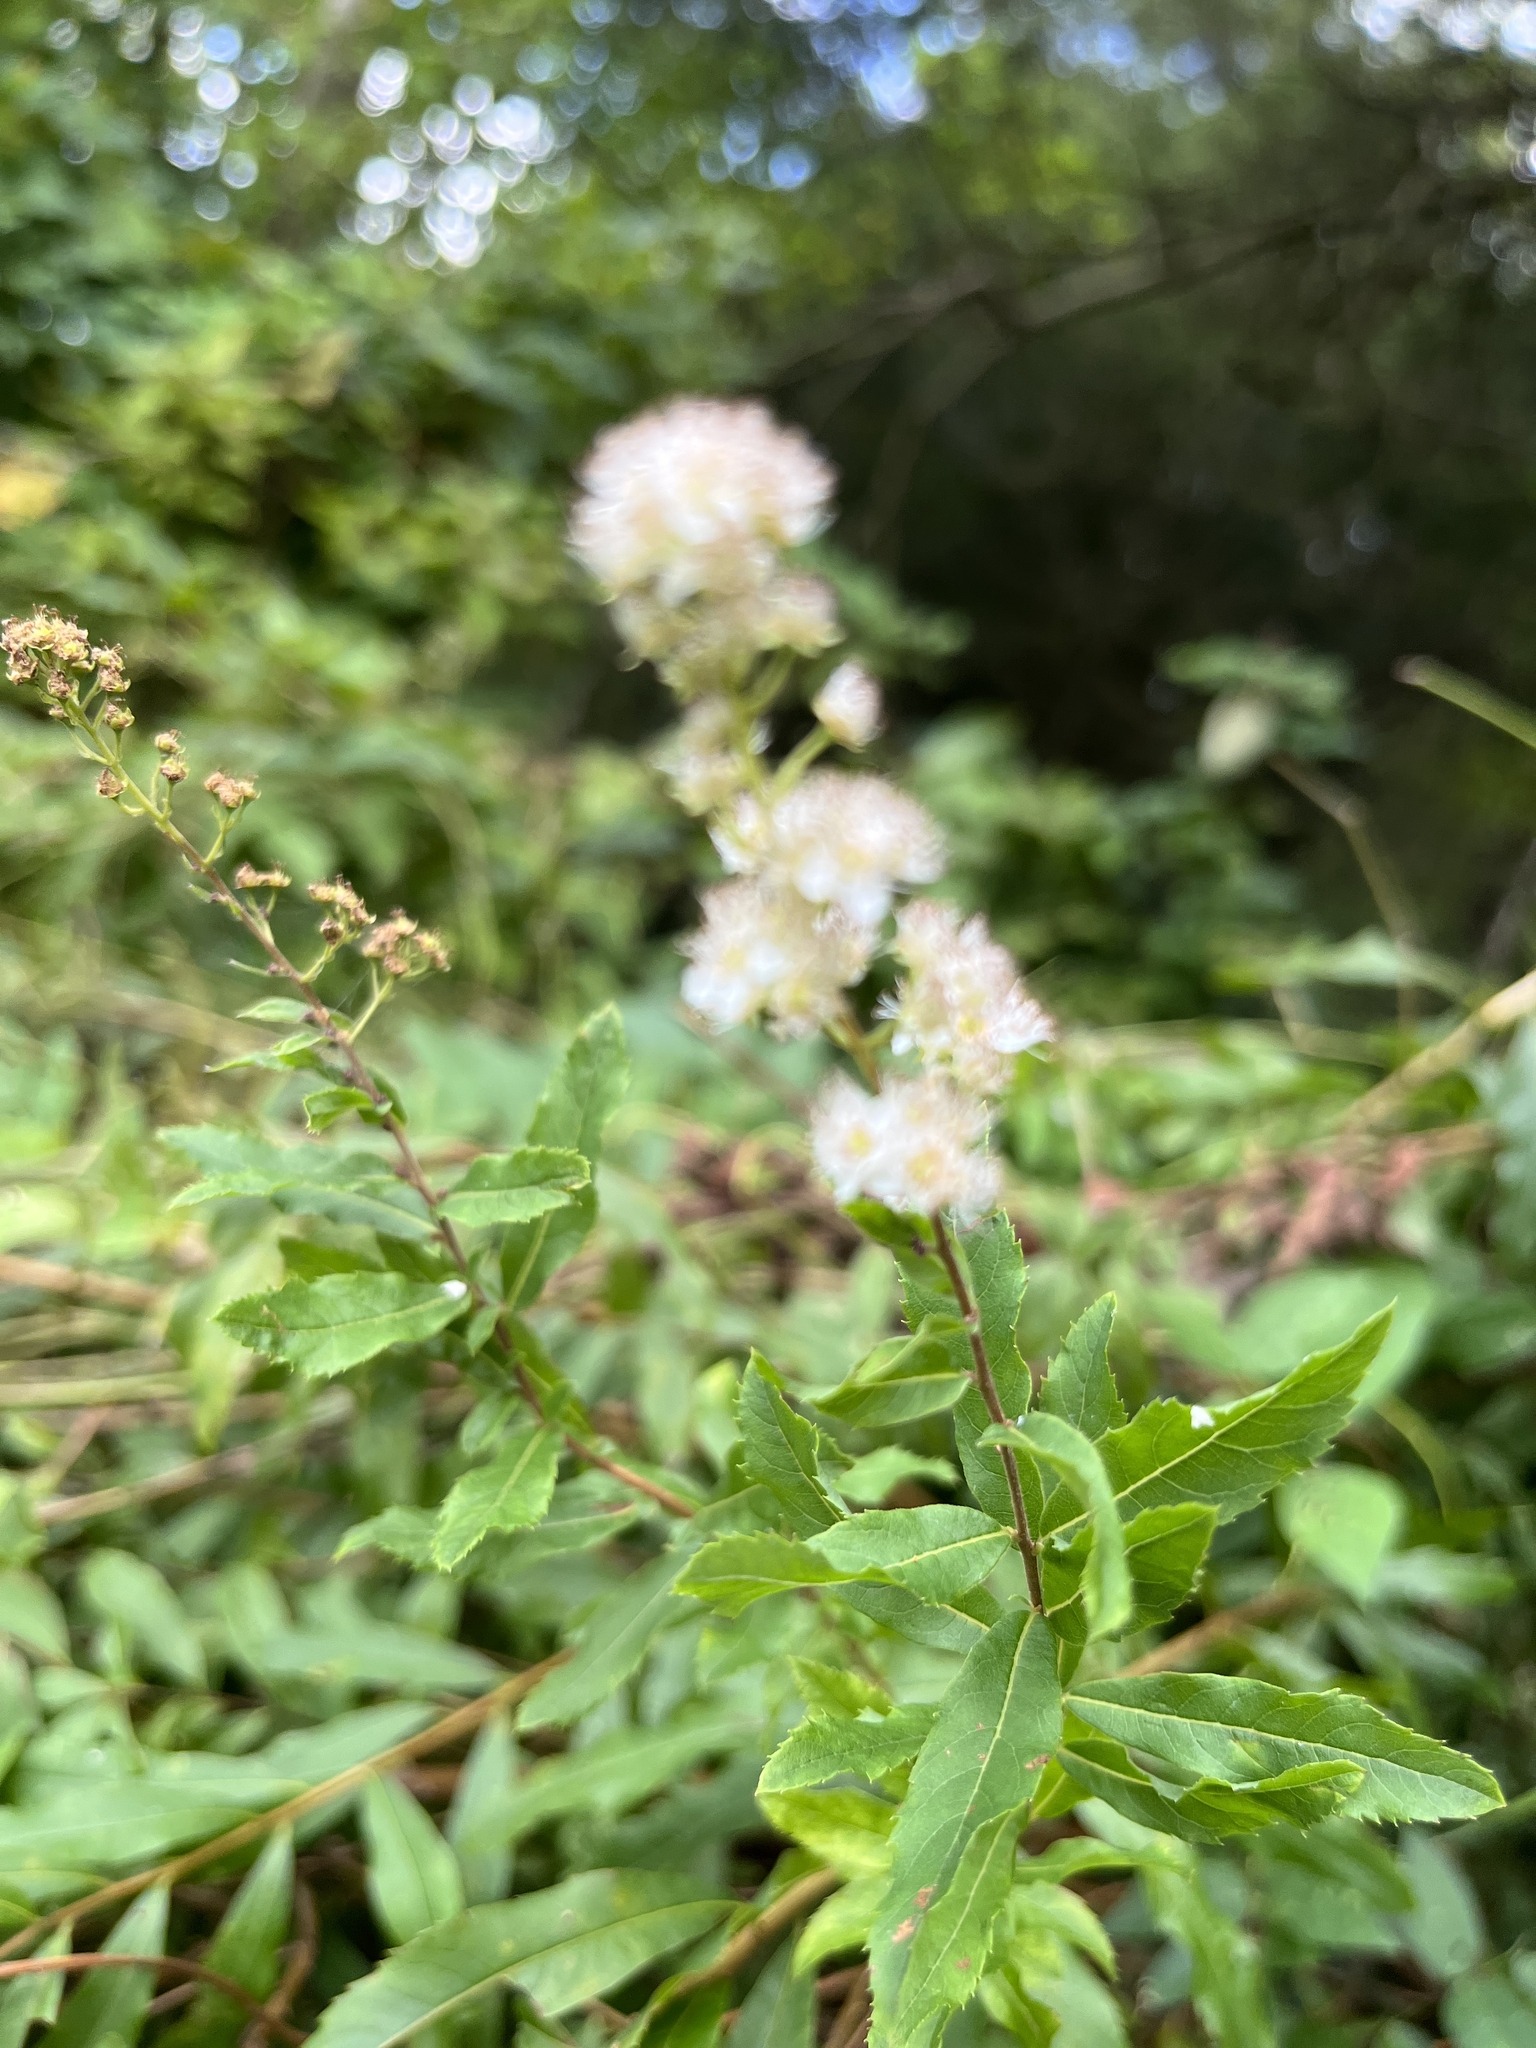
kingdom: Plantae
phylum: Tracheophyta
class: Magnoliopsida
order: Rosales
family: Rosaceae
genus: Spiraea
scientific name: Spiraea alba
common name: Pale bridewort
